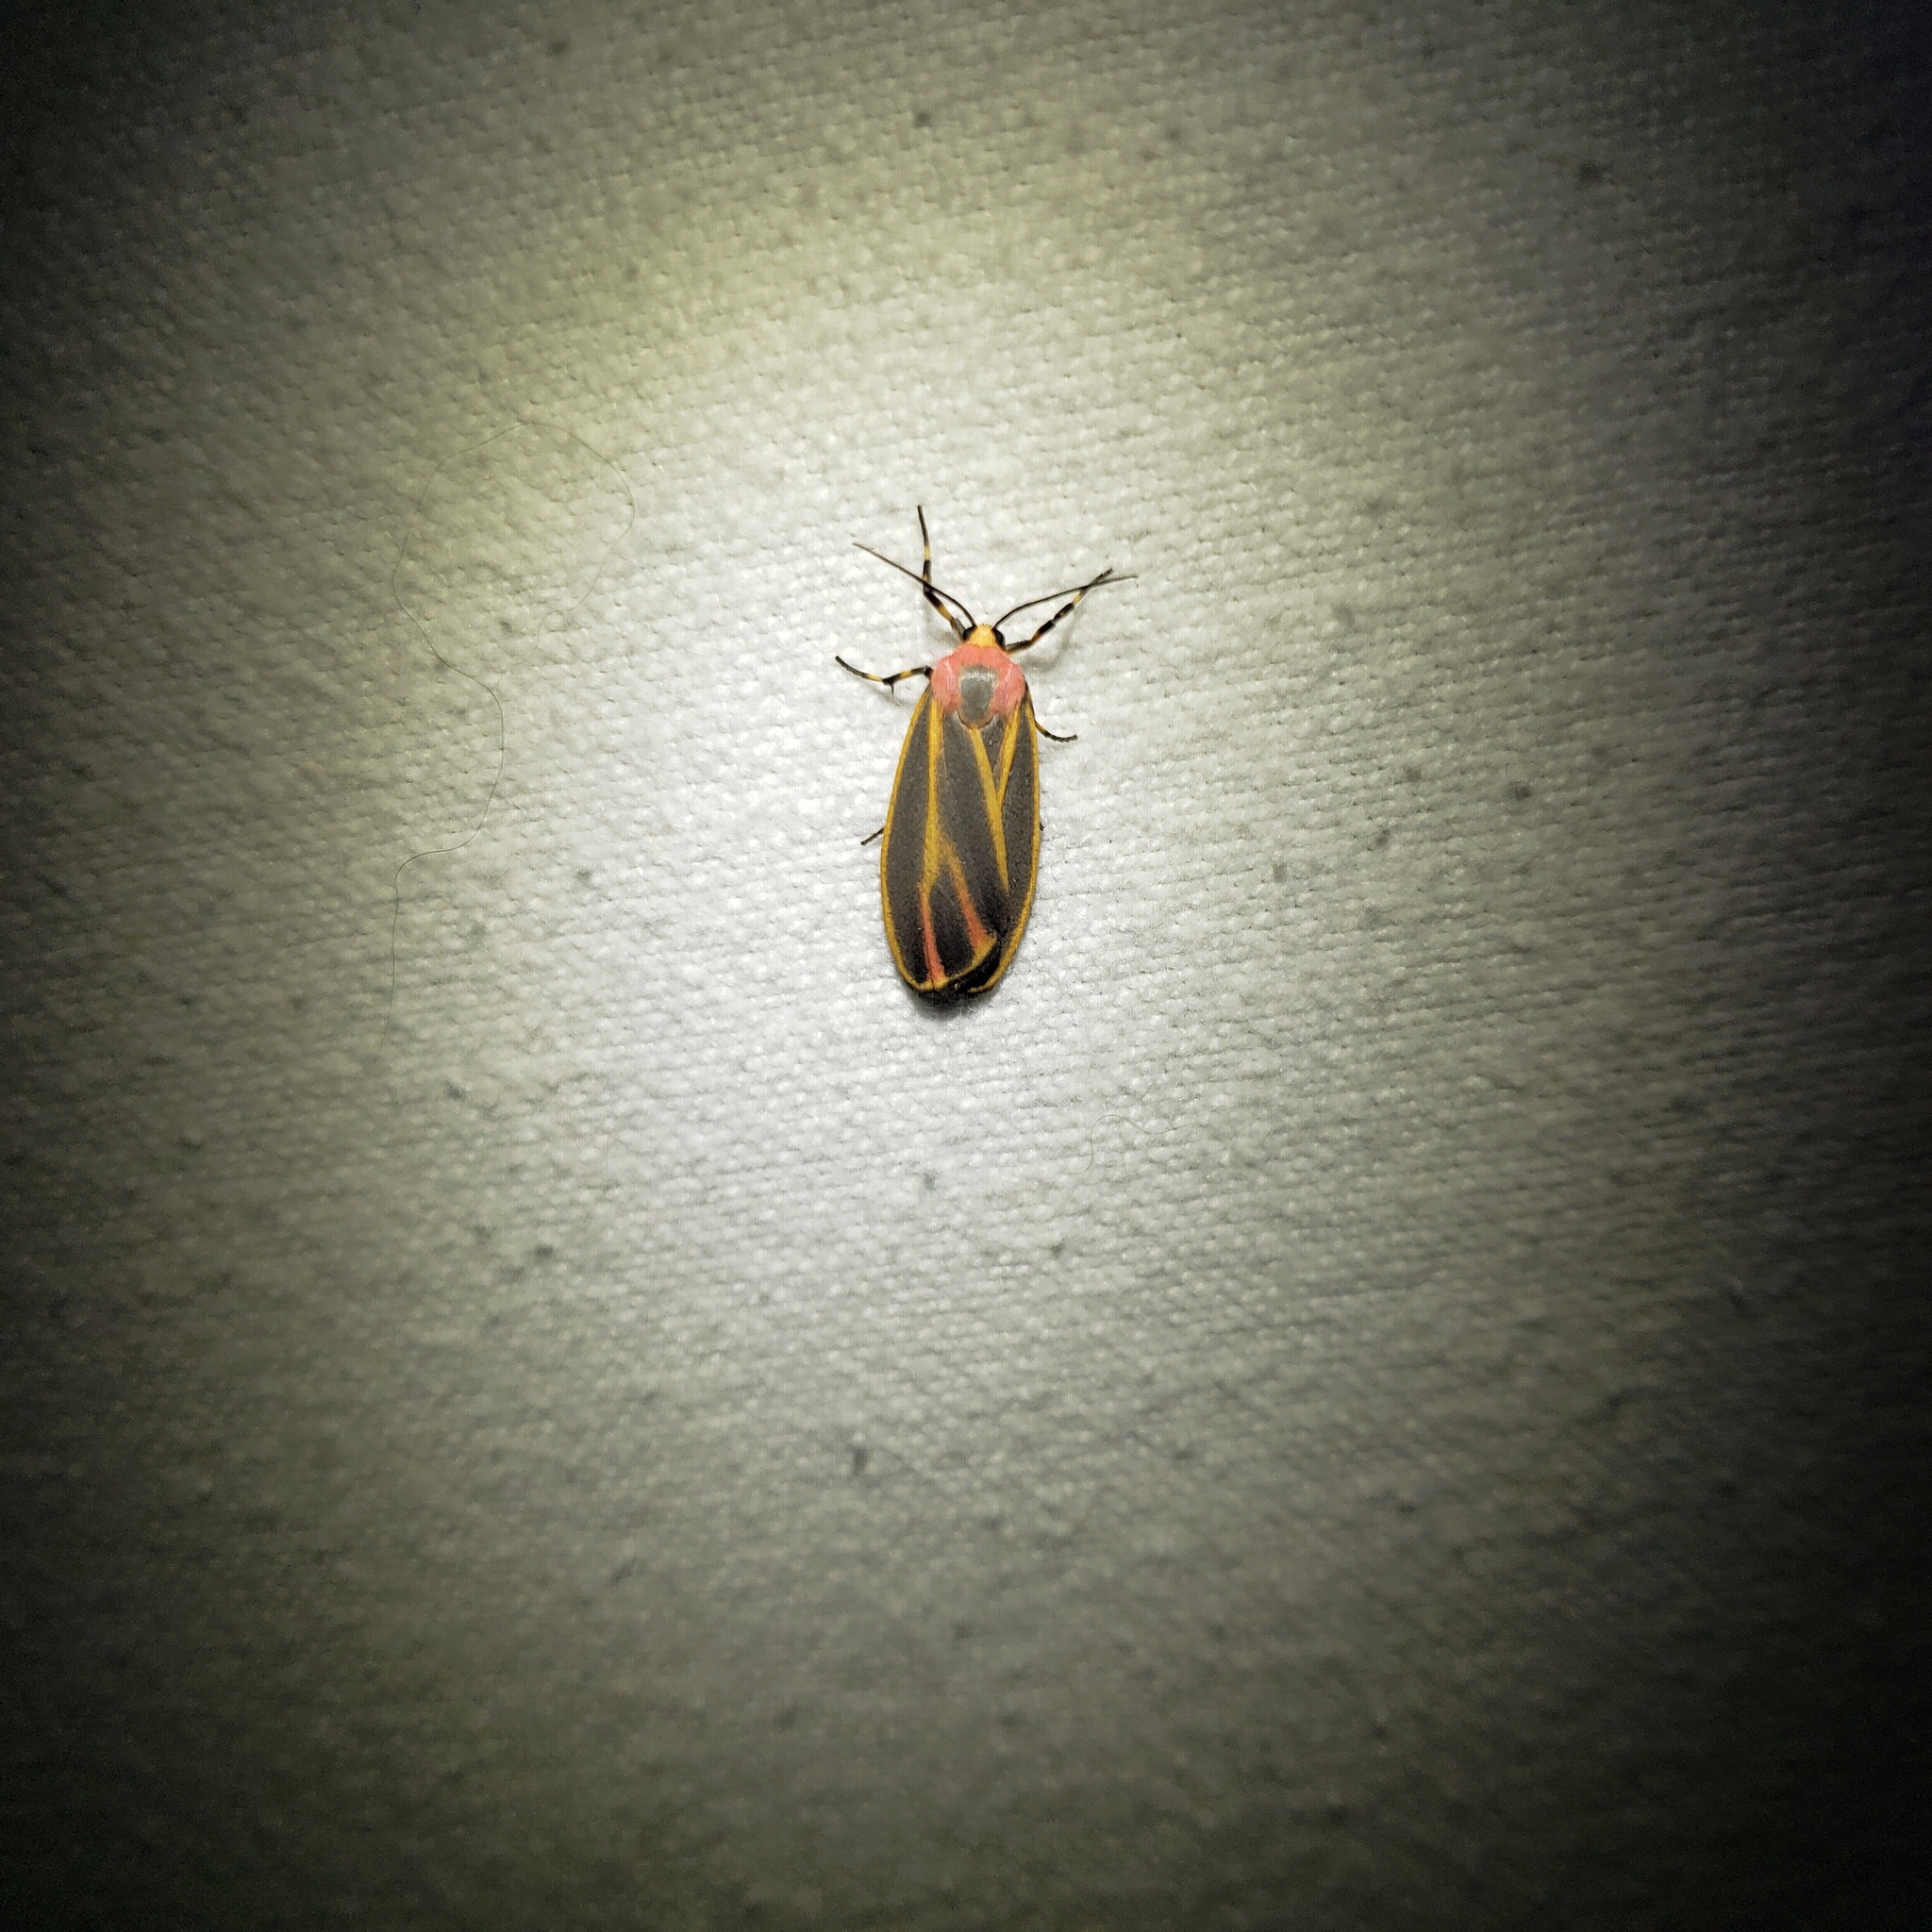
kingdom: Animalia
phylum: Arthropoda
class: Insecta
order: Lepidoptera
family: Erebidae
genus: Hypoprepia
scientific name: Hypoprepia fucosa
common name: Painted lichen moth
